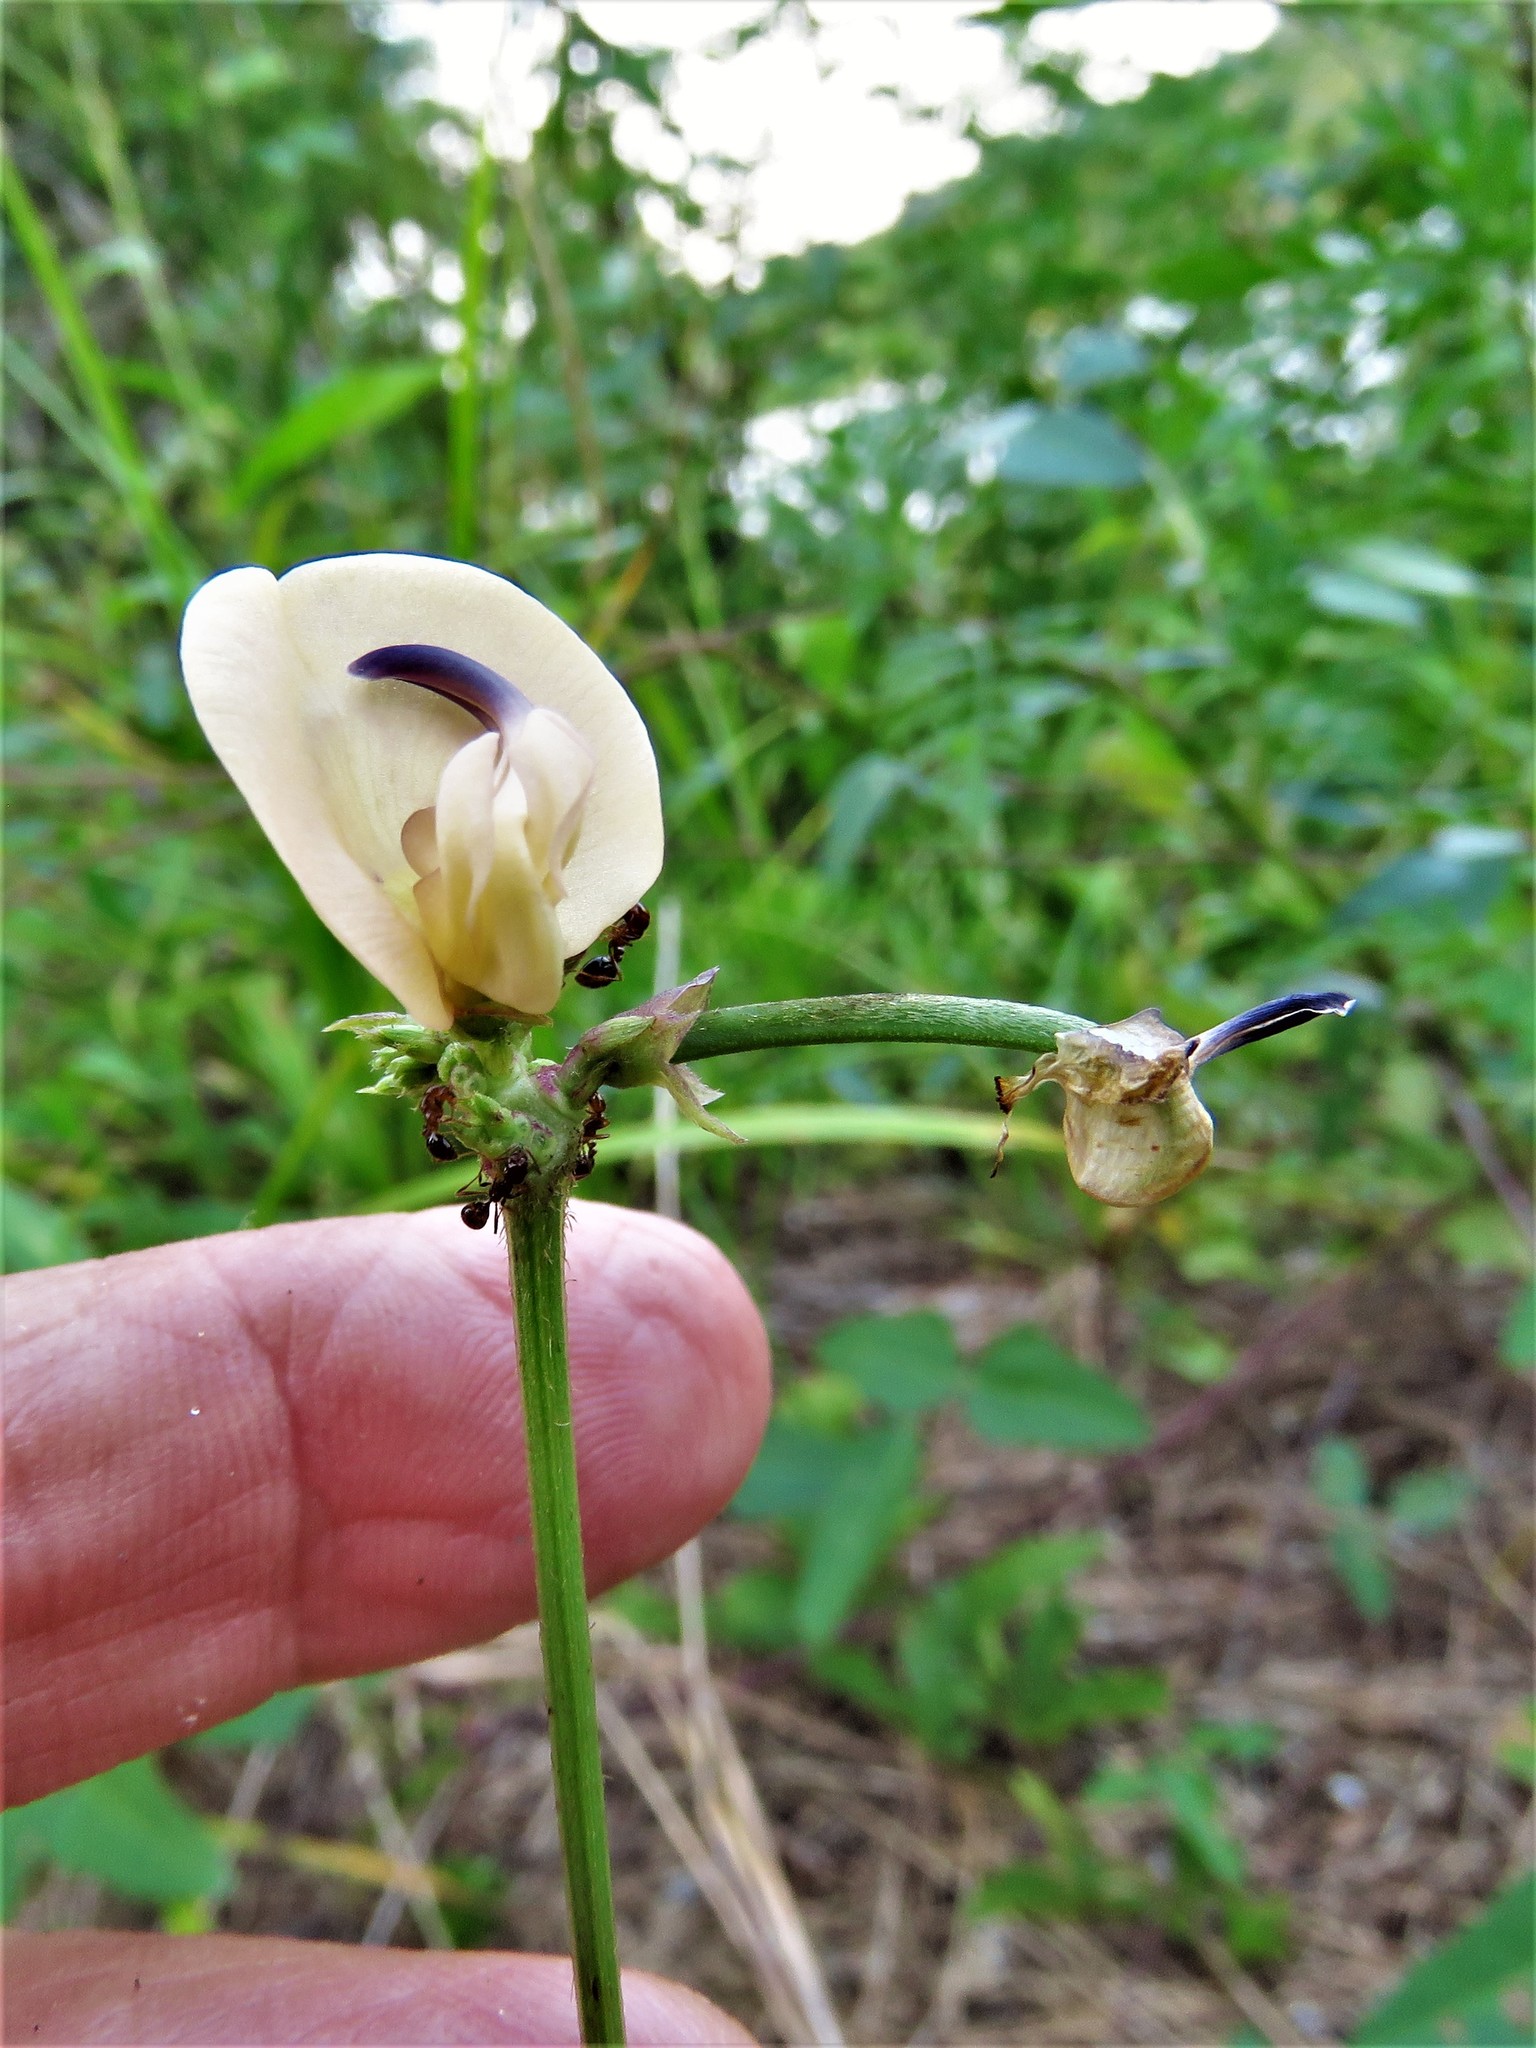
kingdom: Plantae
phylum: Tracheophyta
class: Magnoliopsida
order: Fabales
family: Fabaceae
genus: Strophostyles
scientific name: Strophostyles helvola
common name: Trailing wild bean
